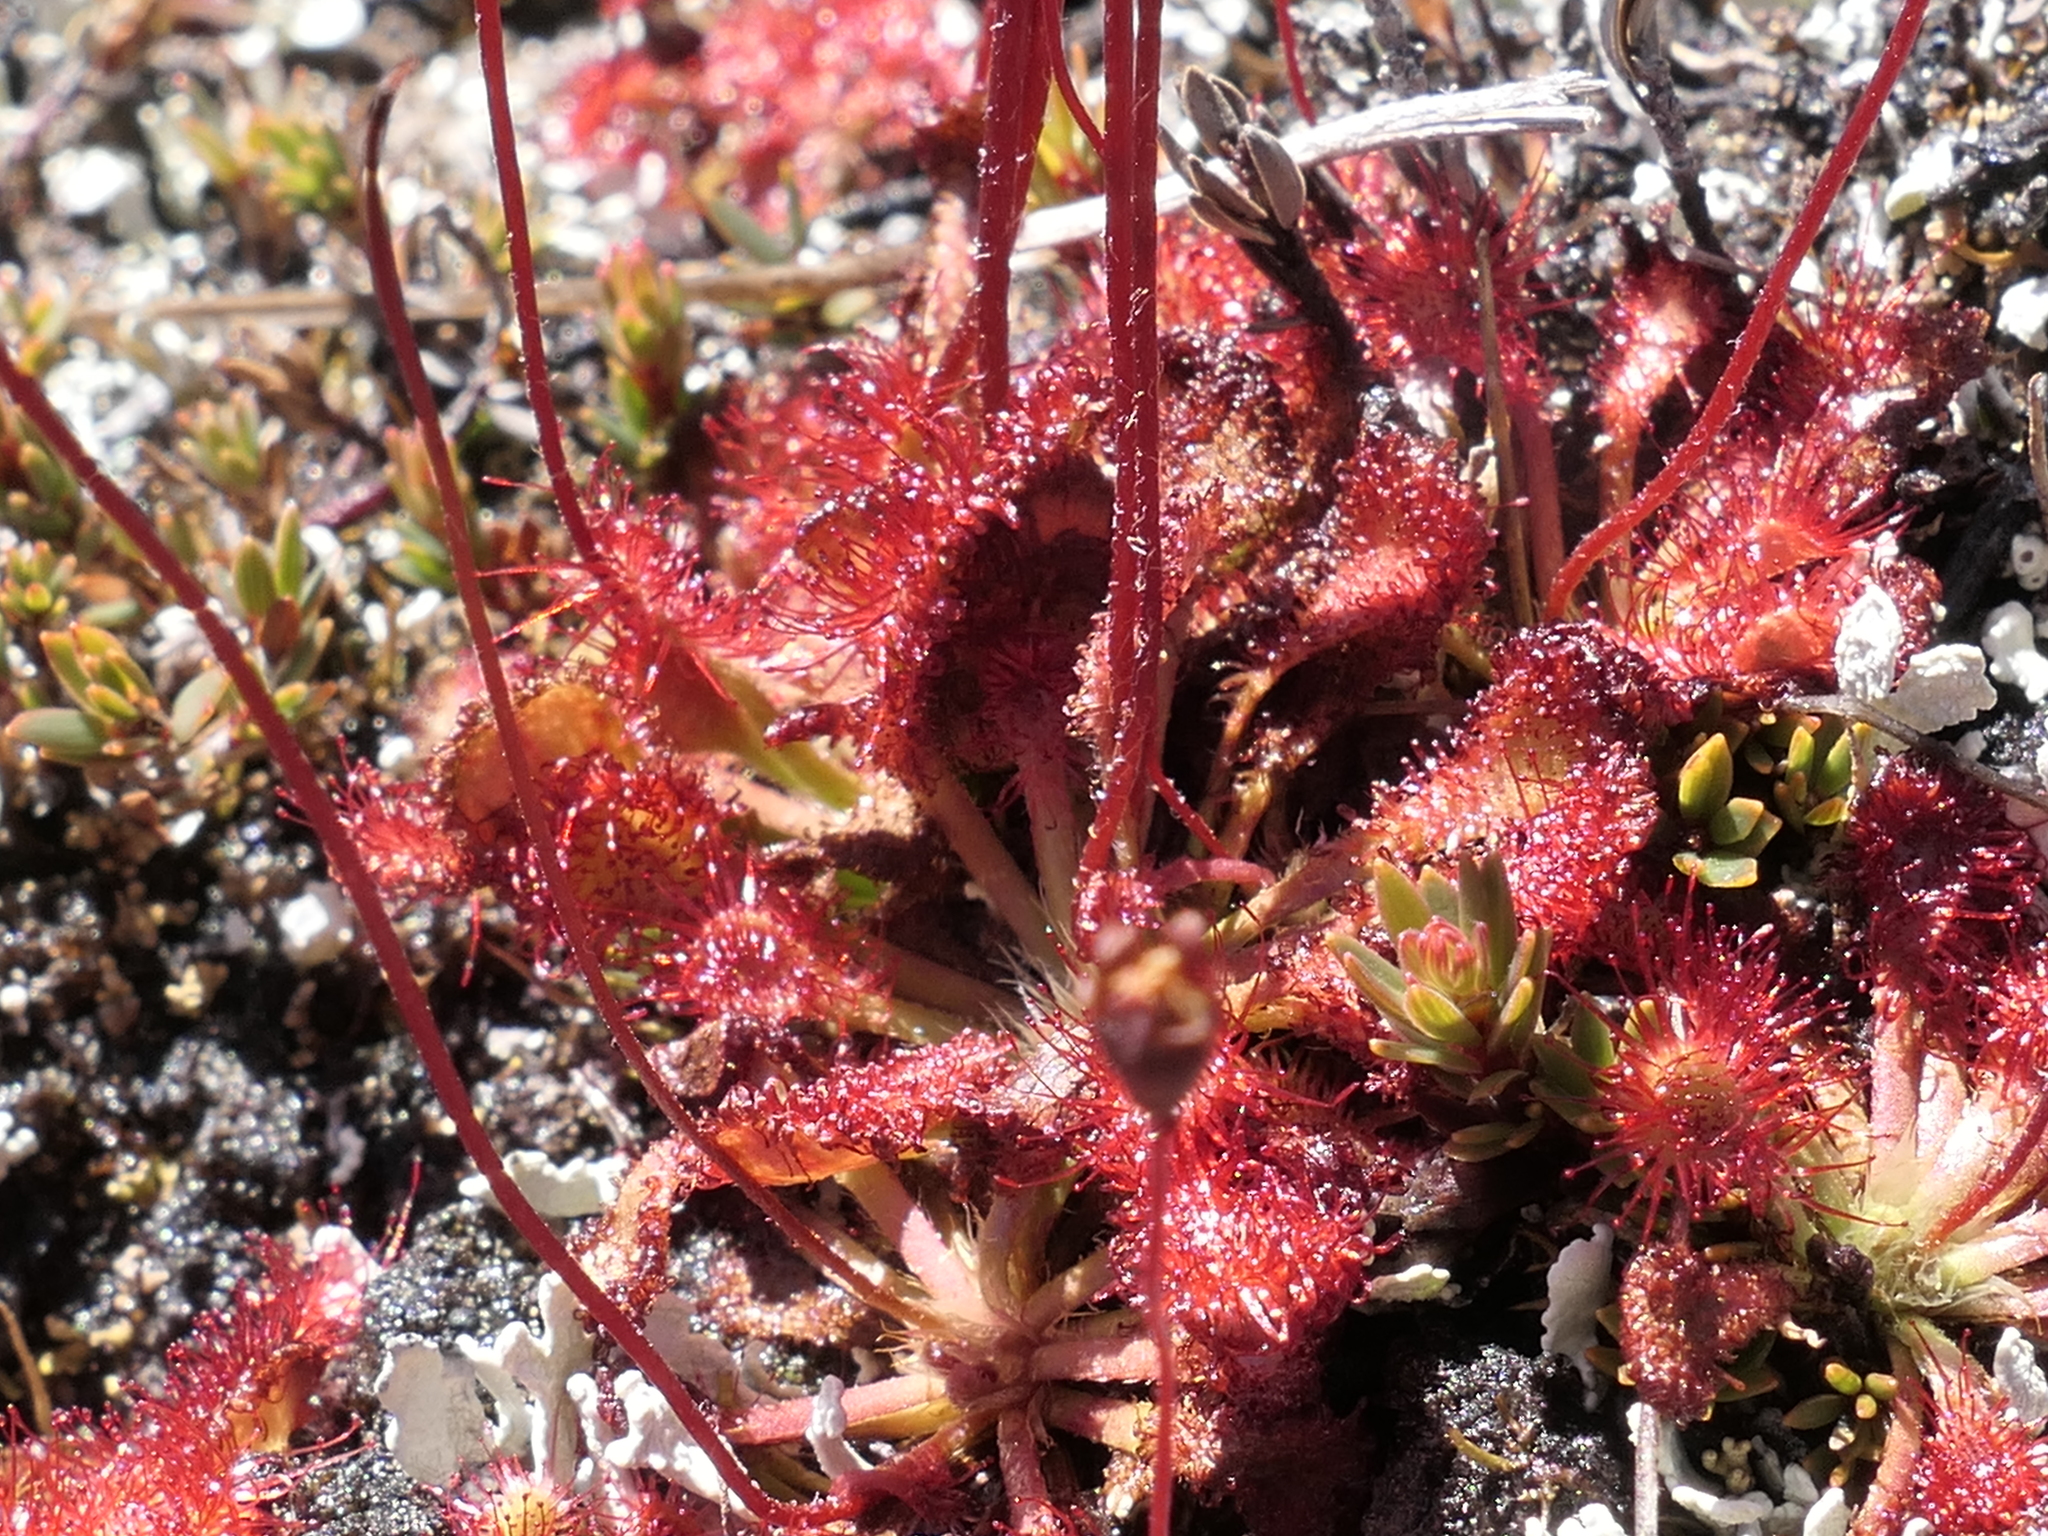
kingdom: Plantae
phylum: Tracheophyta
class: Magnoliopsida
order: Caryophyllales
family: Droseraceae
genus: Drosera
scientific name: Drosera spatulata
